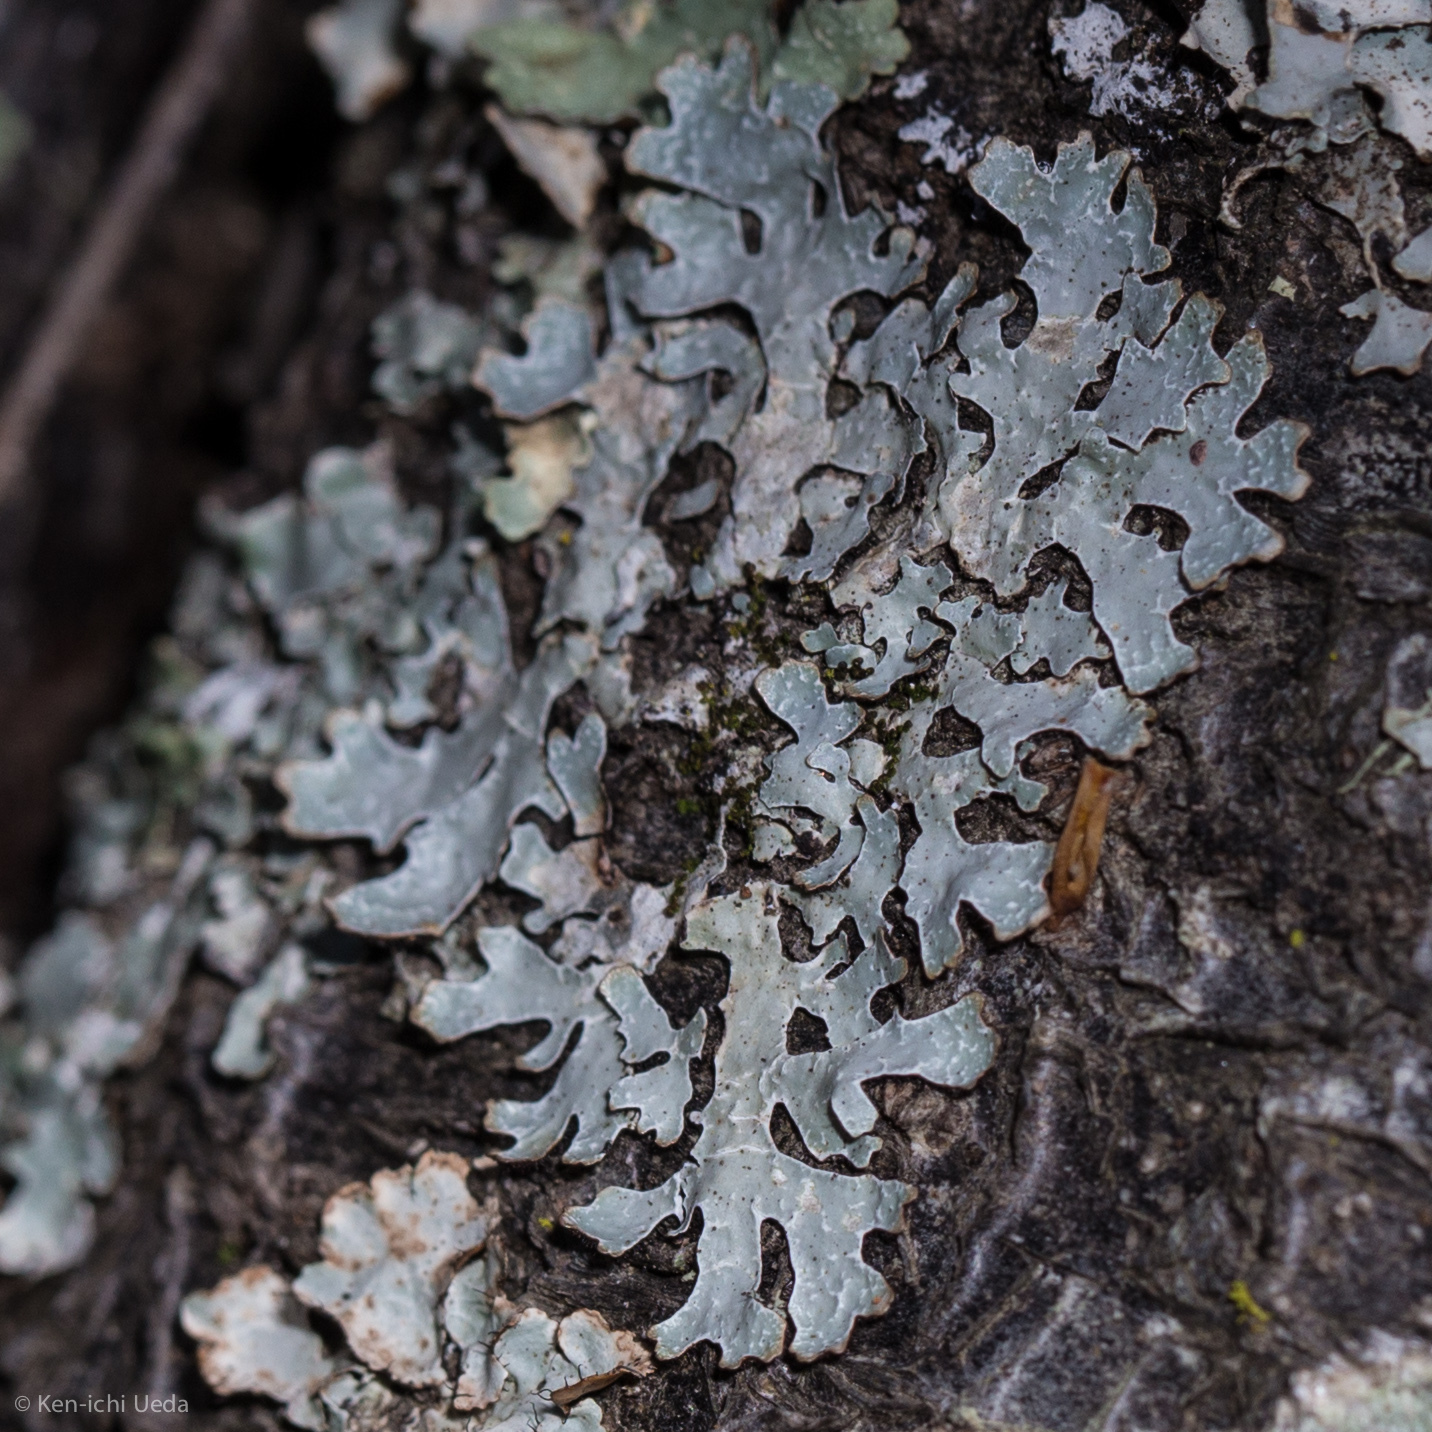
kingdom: Fungi
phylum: Ascomycota
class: Lecanoromycetes
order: Lecanorales
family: Parmeliaceae
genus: Parmelia
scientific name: Parmelia sulcata
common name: Netted shield lichen
